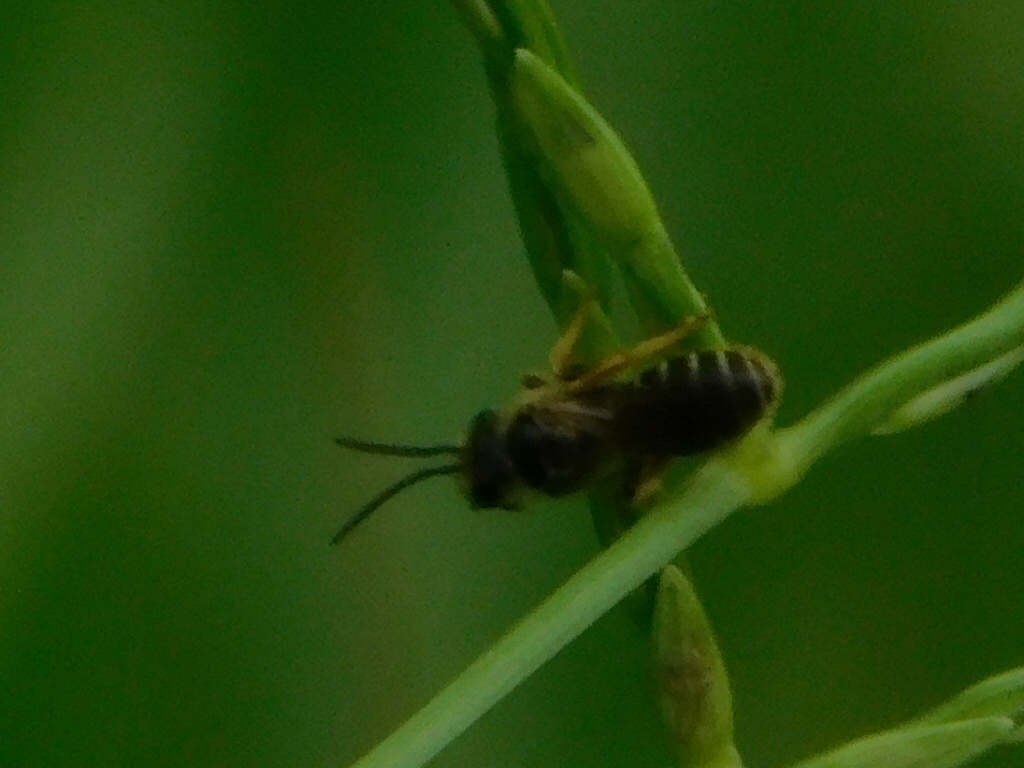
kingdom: Animalia
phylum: Arthropoda
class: Insecta
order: Hymenoptera
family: Halictidae
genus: Halictus
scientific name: Halictus poeyi
